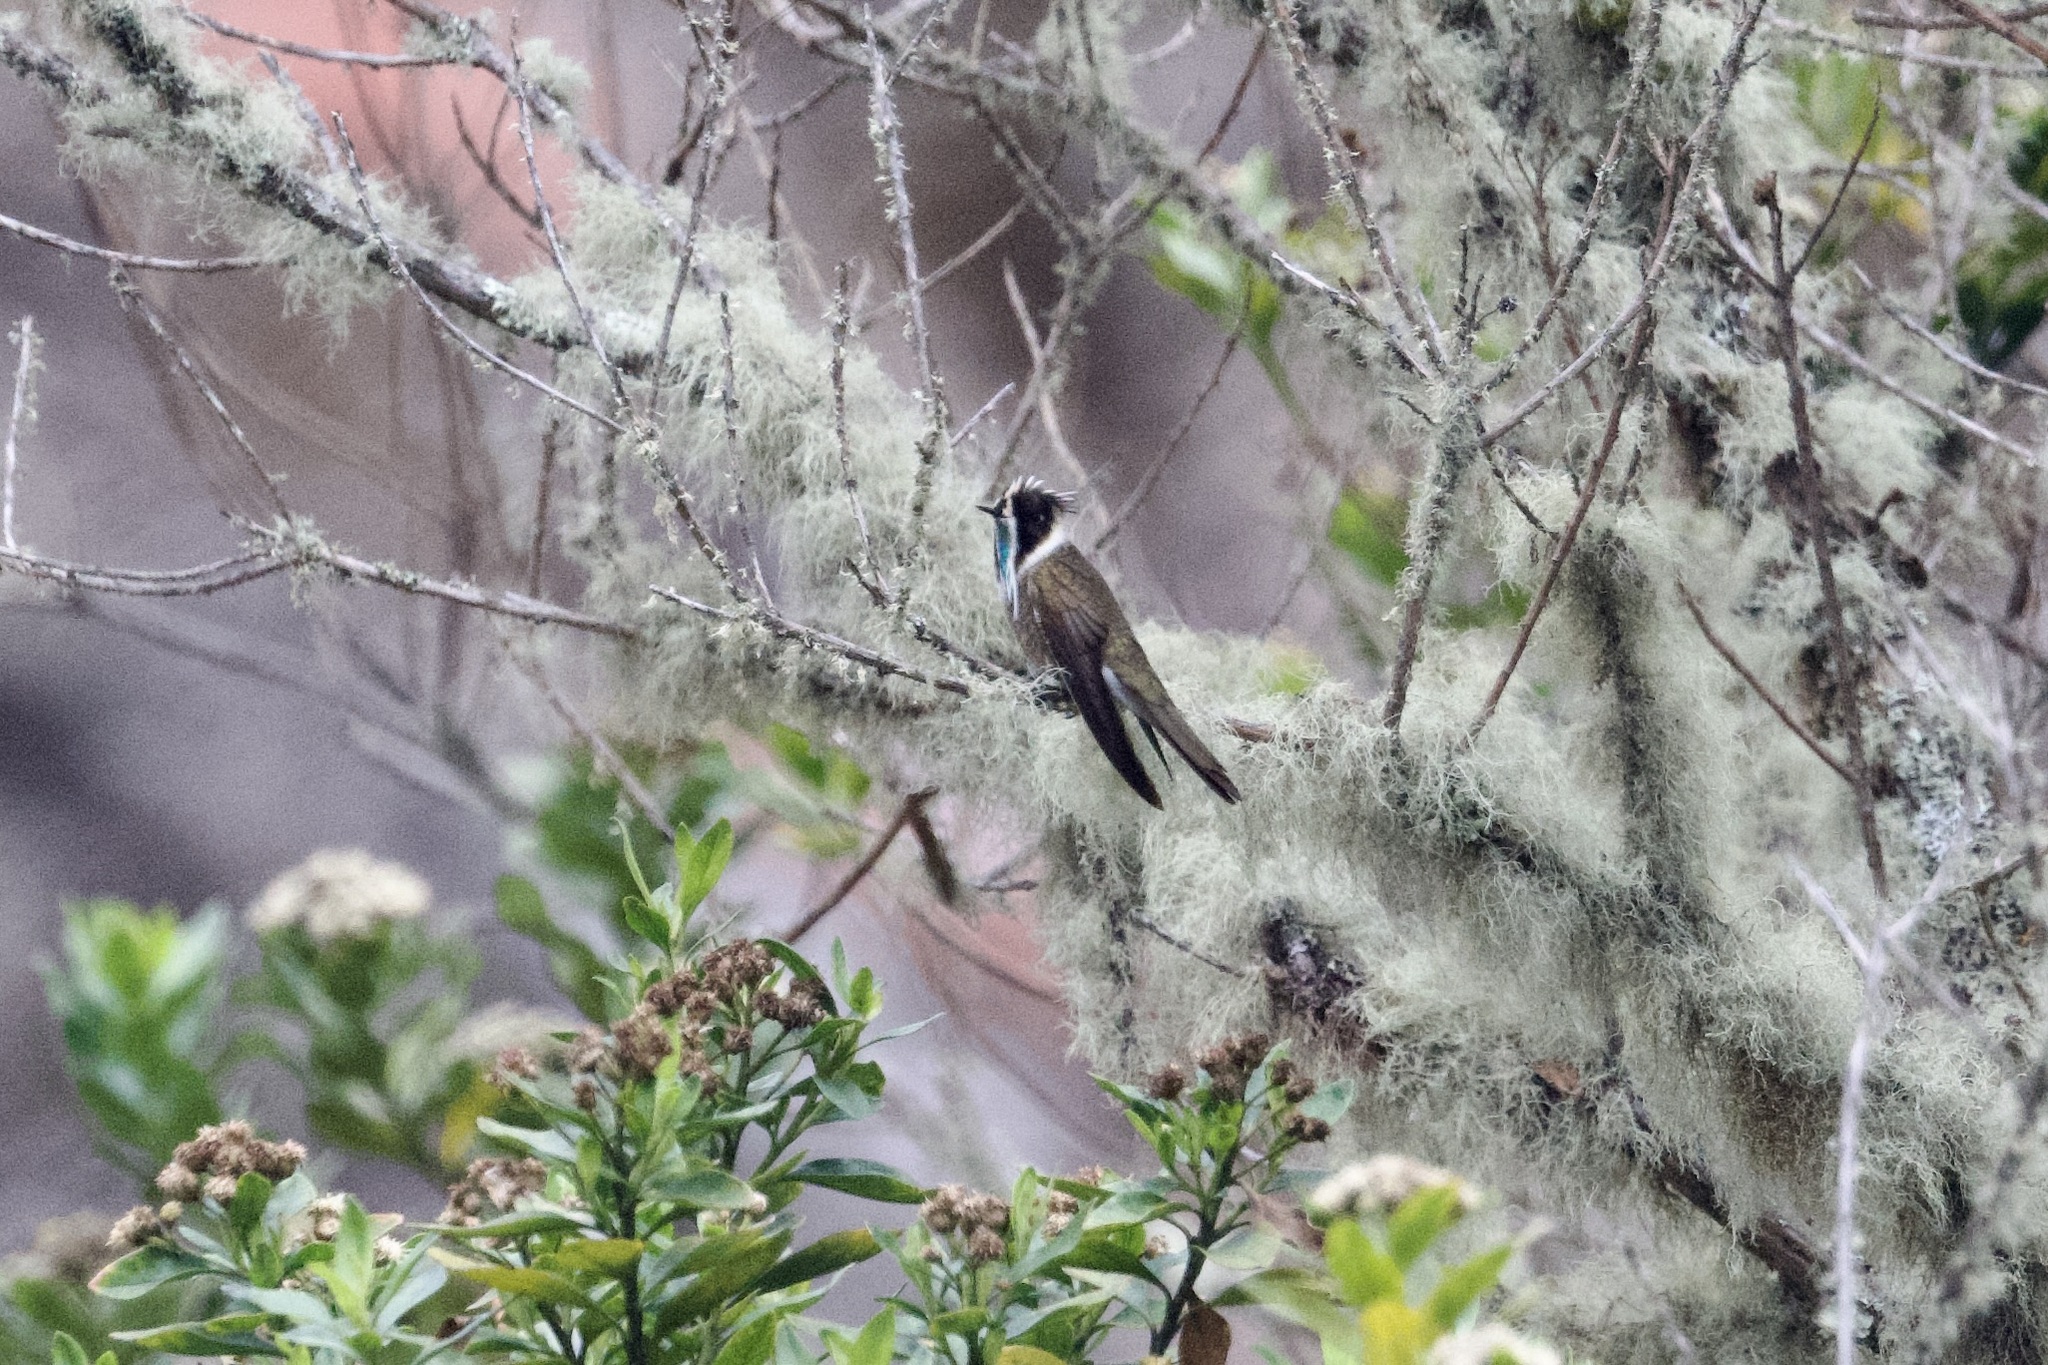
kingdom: Animalia
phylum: Chordata
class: Aves
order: Apodiformes
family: Trochilidae
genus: Oxypogon
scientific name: Oxypogon guerinii
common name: Bearded helmetcrest
